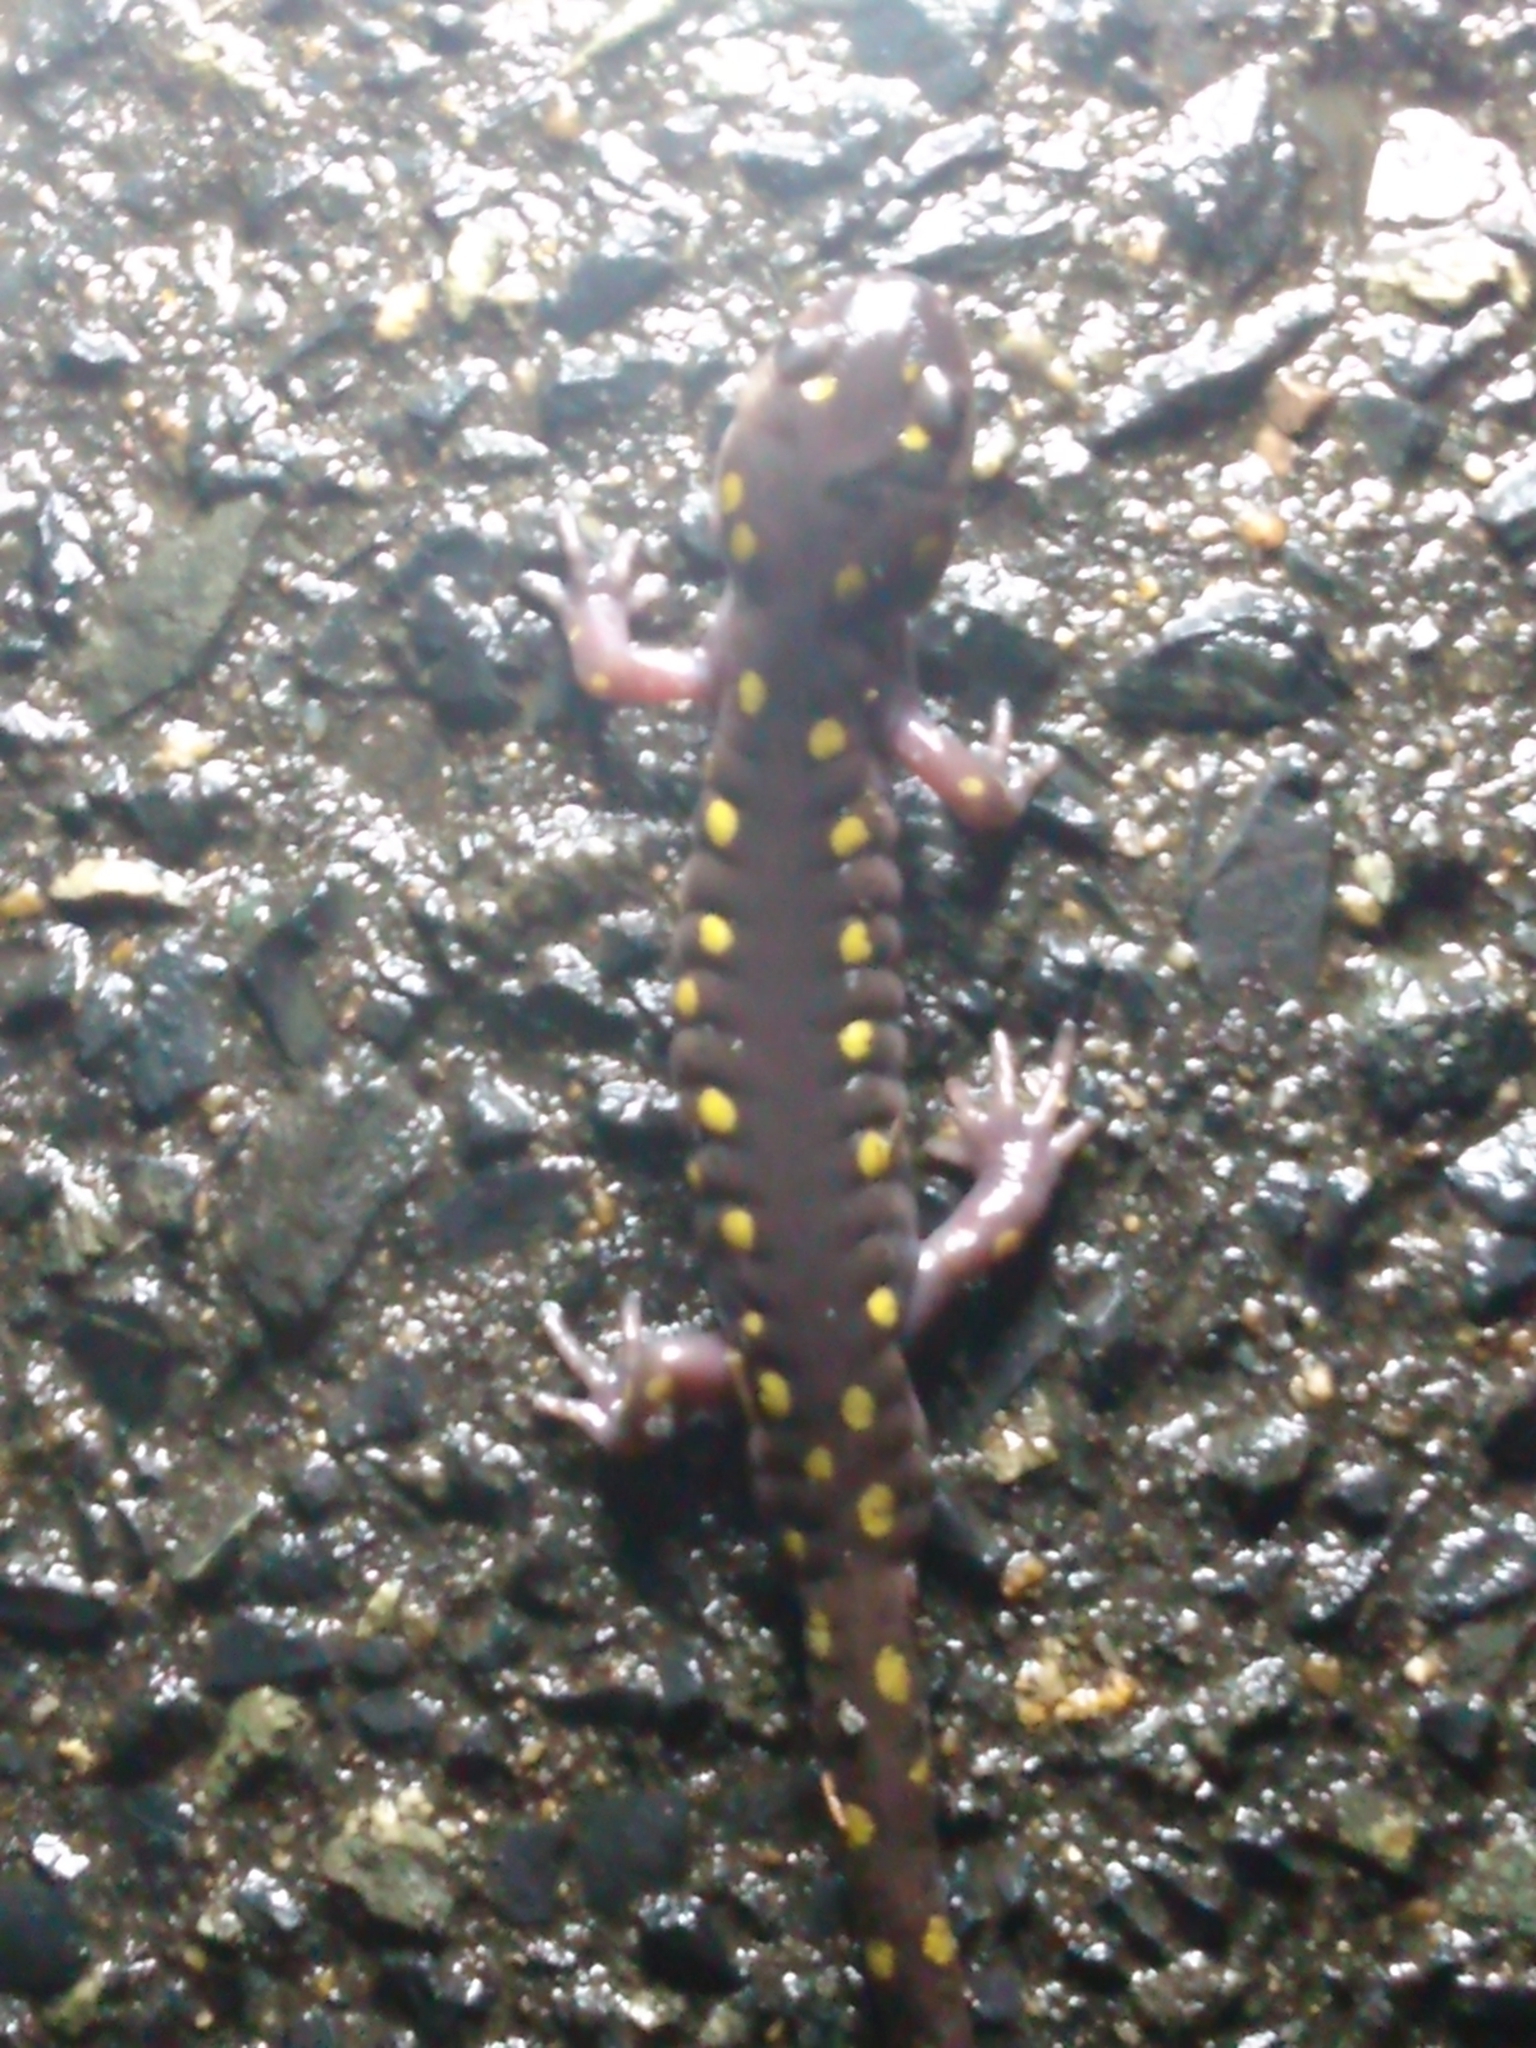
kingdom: Animalia
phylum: Chordata
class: Amphibia
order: Caudata
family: Ambystomatidae
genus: Ambystoma
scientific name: Ambystoma maculatum
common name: Spotted salamander
